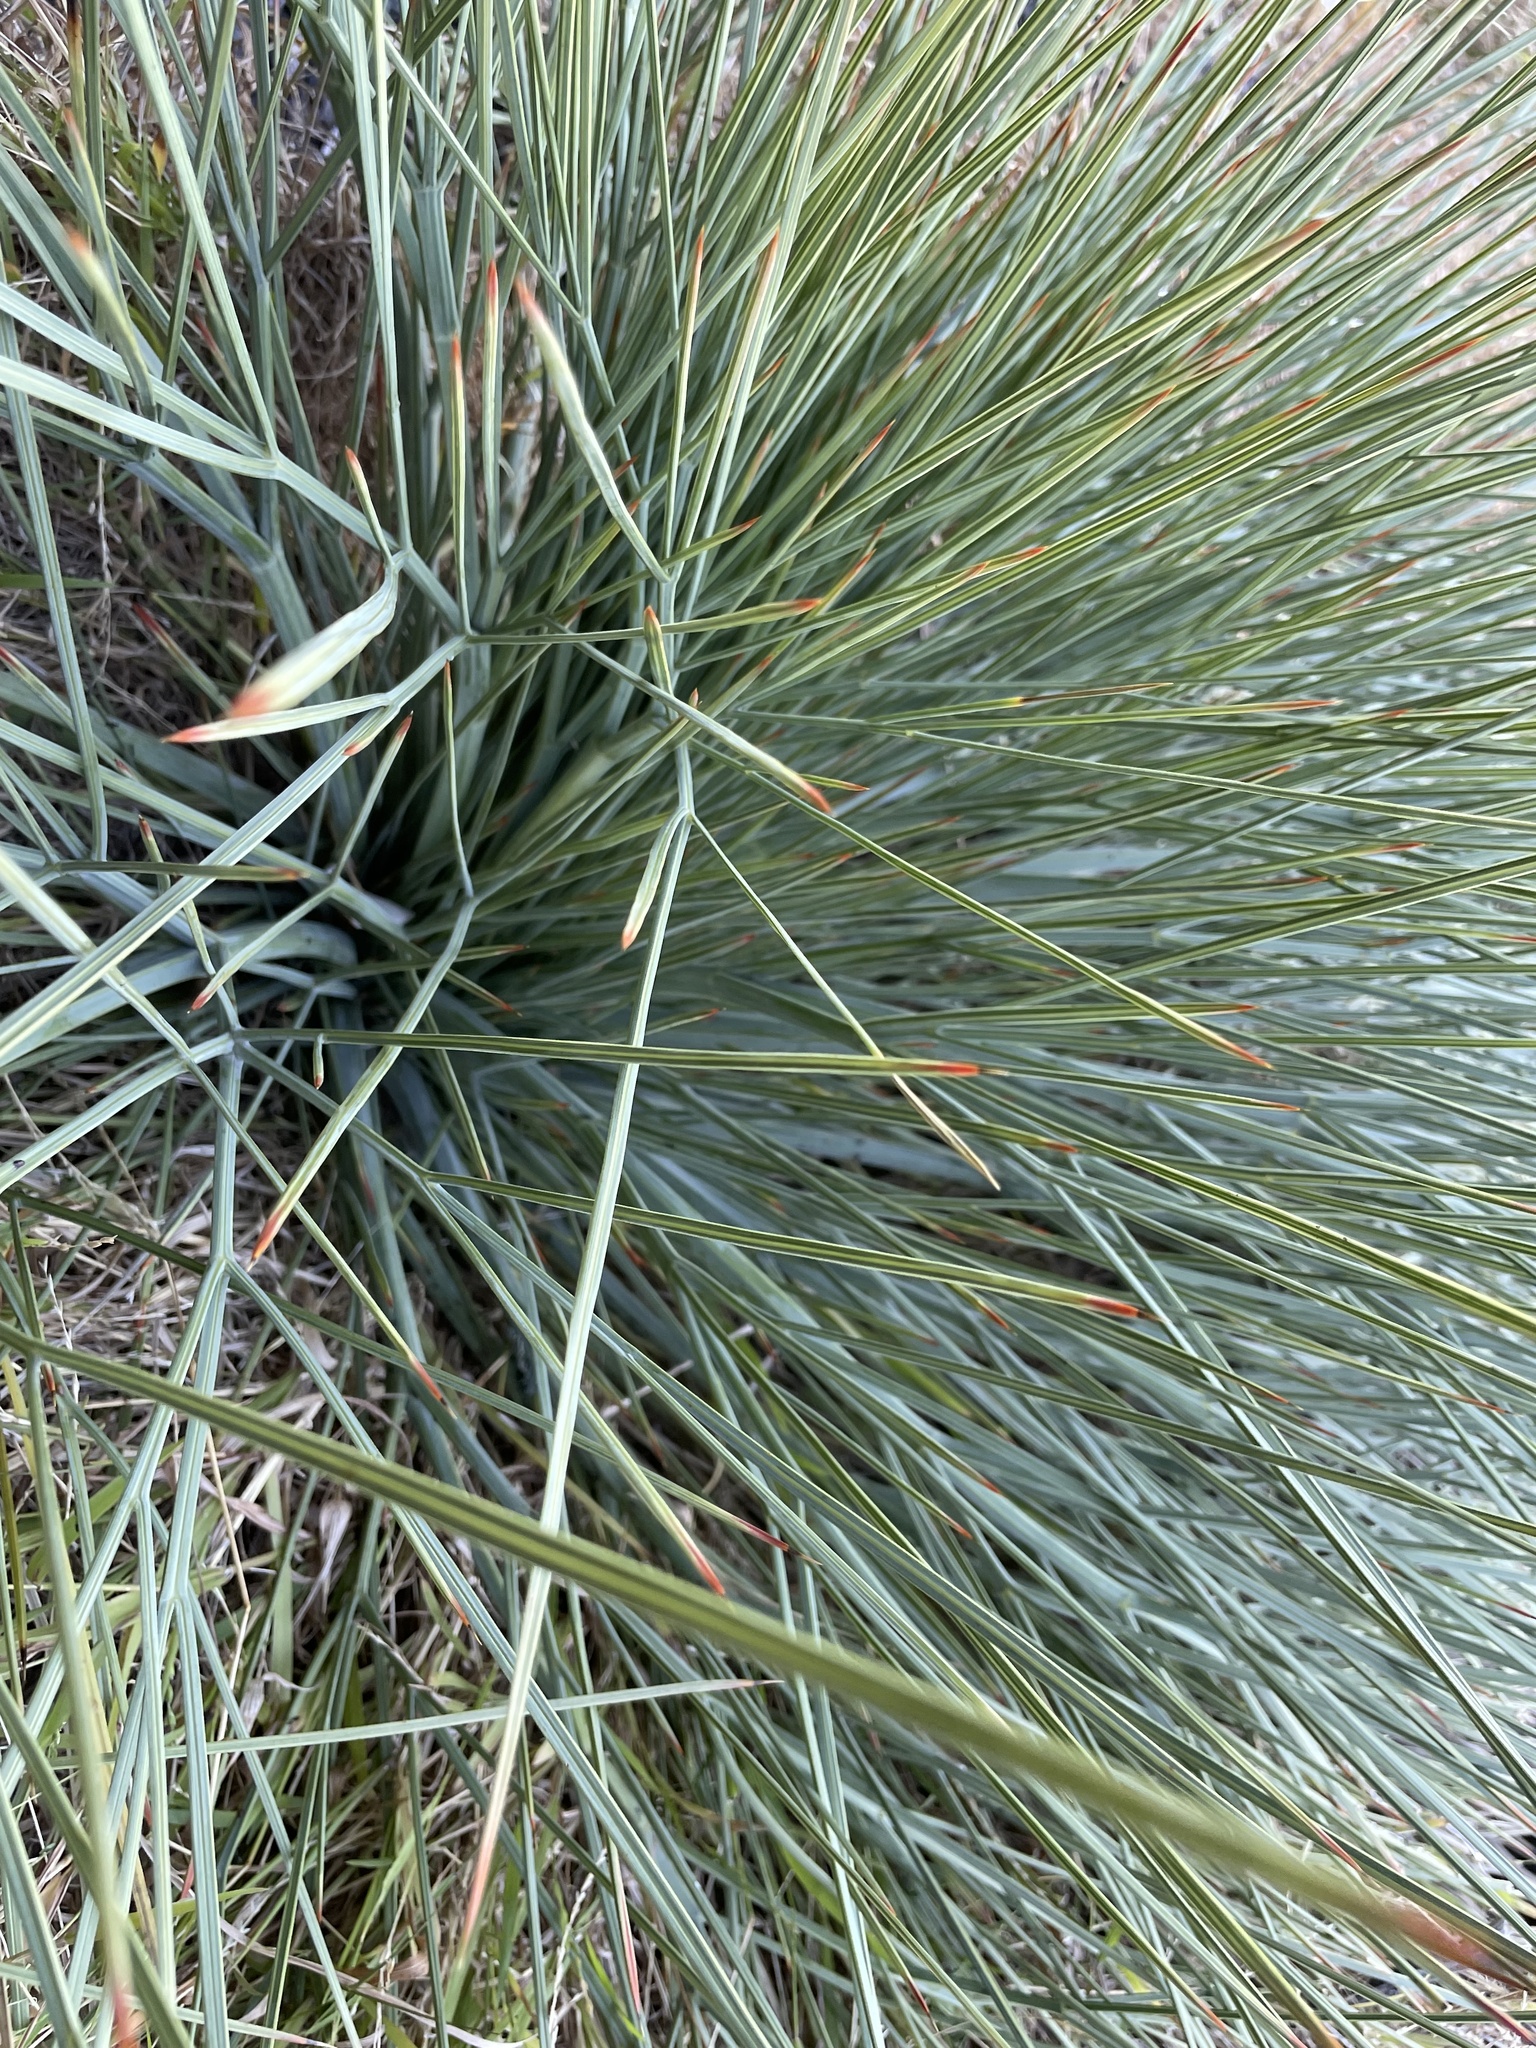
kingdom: Plantae
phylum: Tracheophyta
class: Magnoliopsida
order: Apiales
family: Apiaceae
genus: Aciphylla
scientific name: Aciphylla squarrosa
